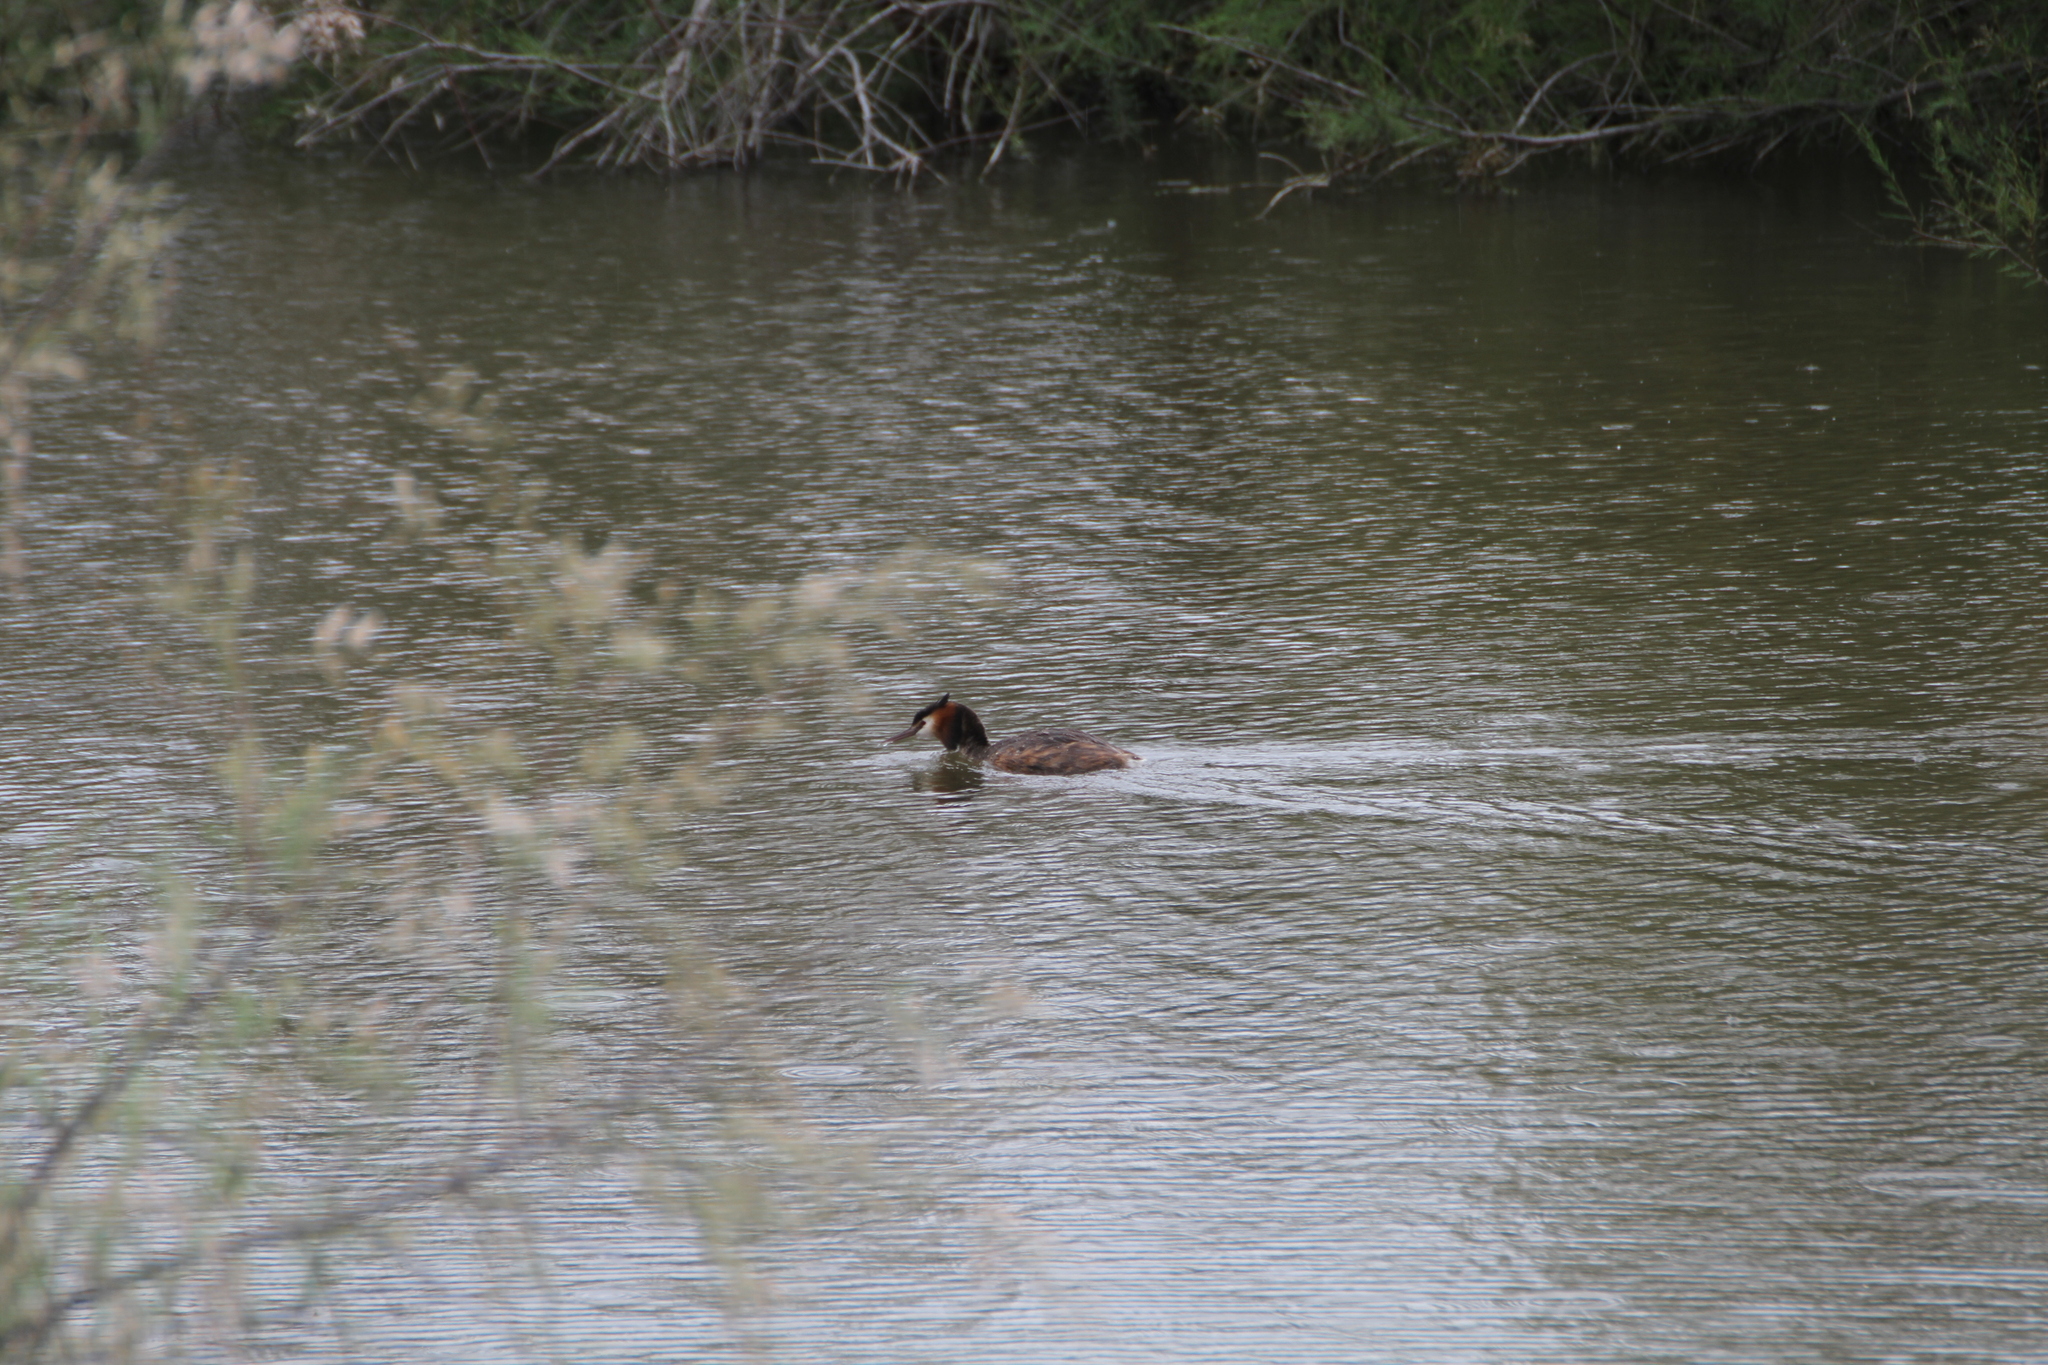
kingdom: Animalia
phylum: Chordata
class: Aves
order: Podicipediformes
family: Podicipedidae
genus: Podiceps
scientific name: Podiceps cristatus
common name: Great crested grebe
